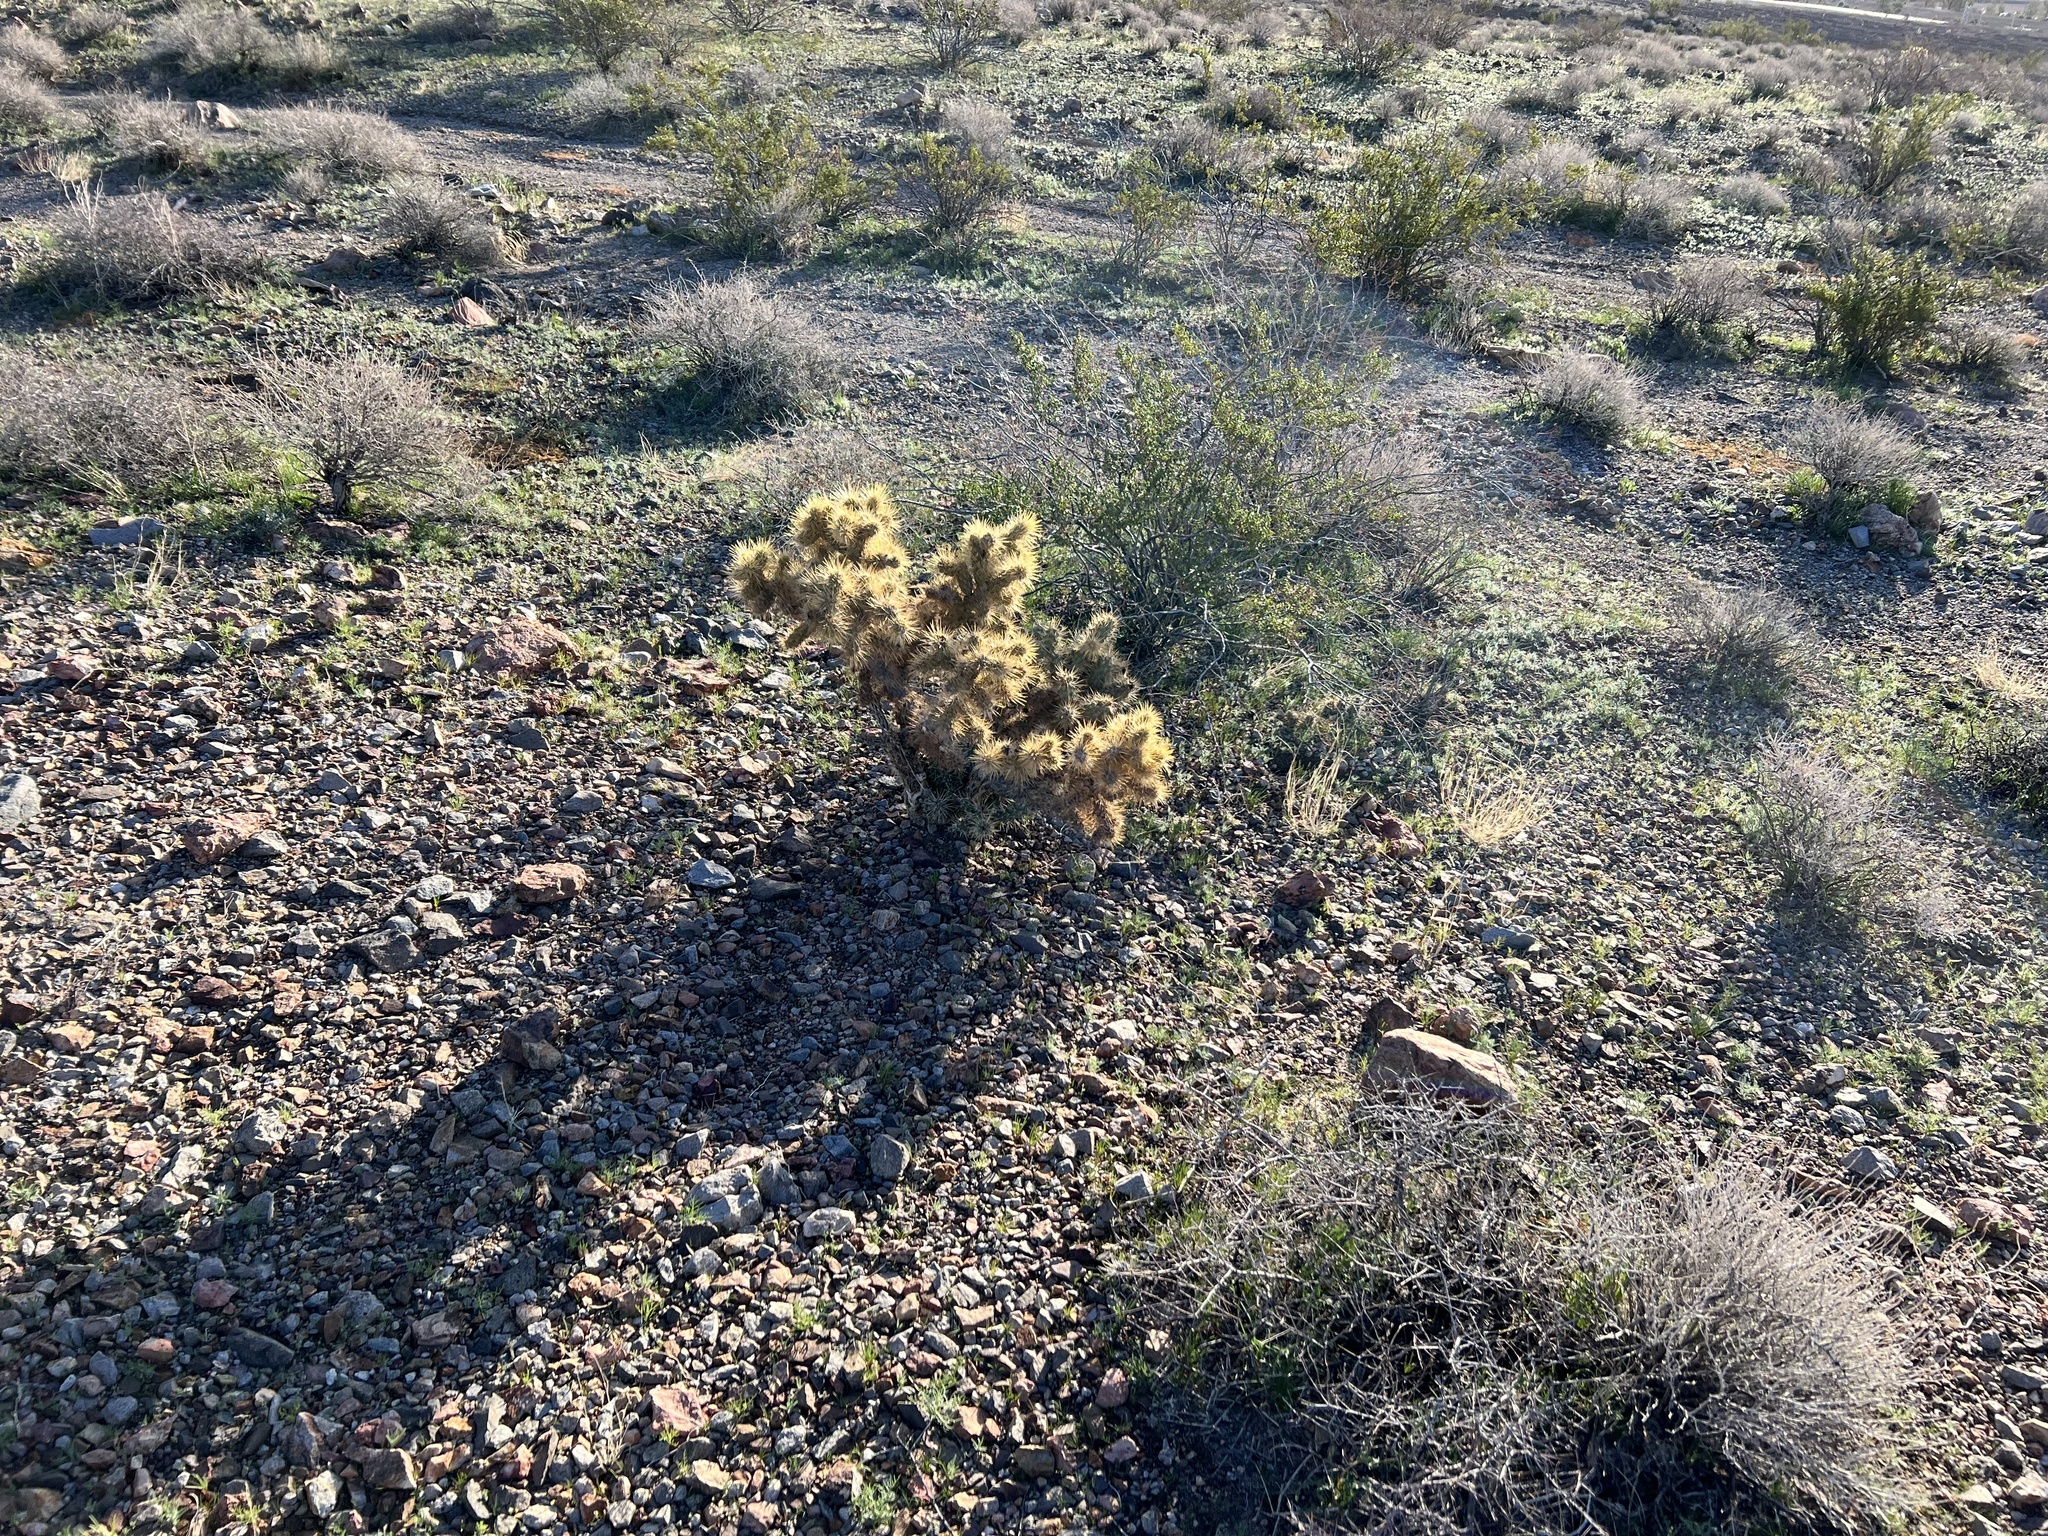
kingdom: Plantae
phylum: Tracheophyta
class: Magnoliopsida
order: Caryophyllales
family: Cactaceae
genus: Cylindropuntia
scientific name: Cylindropuntia echinocarpa
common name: Ground cholla
